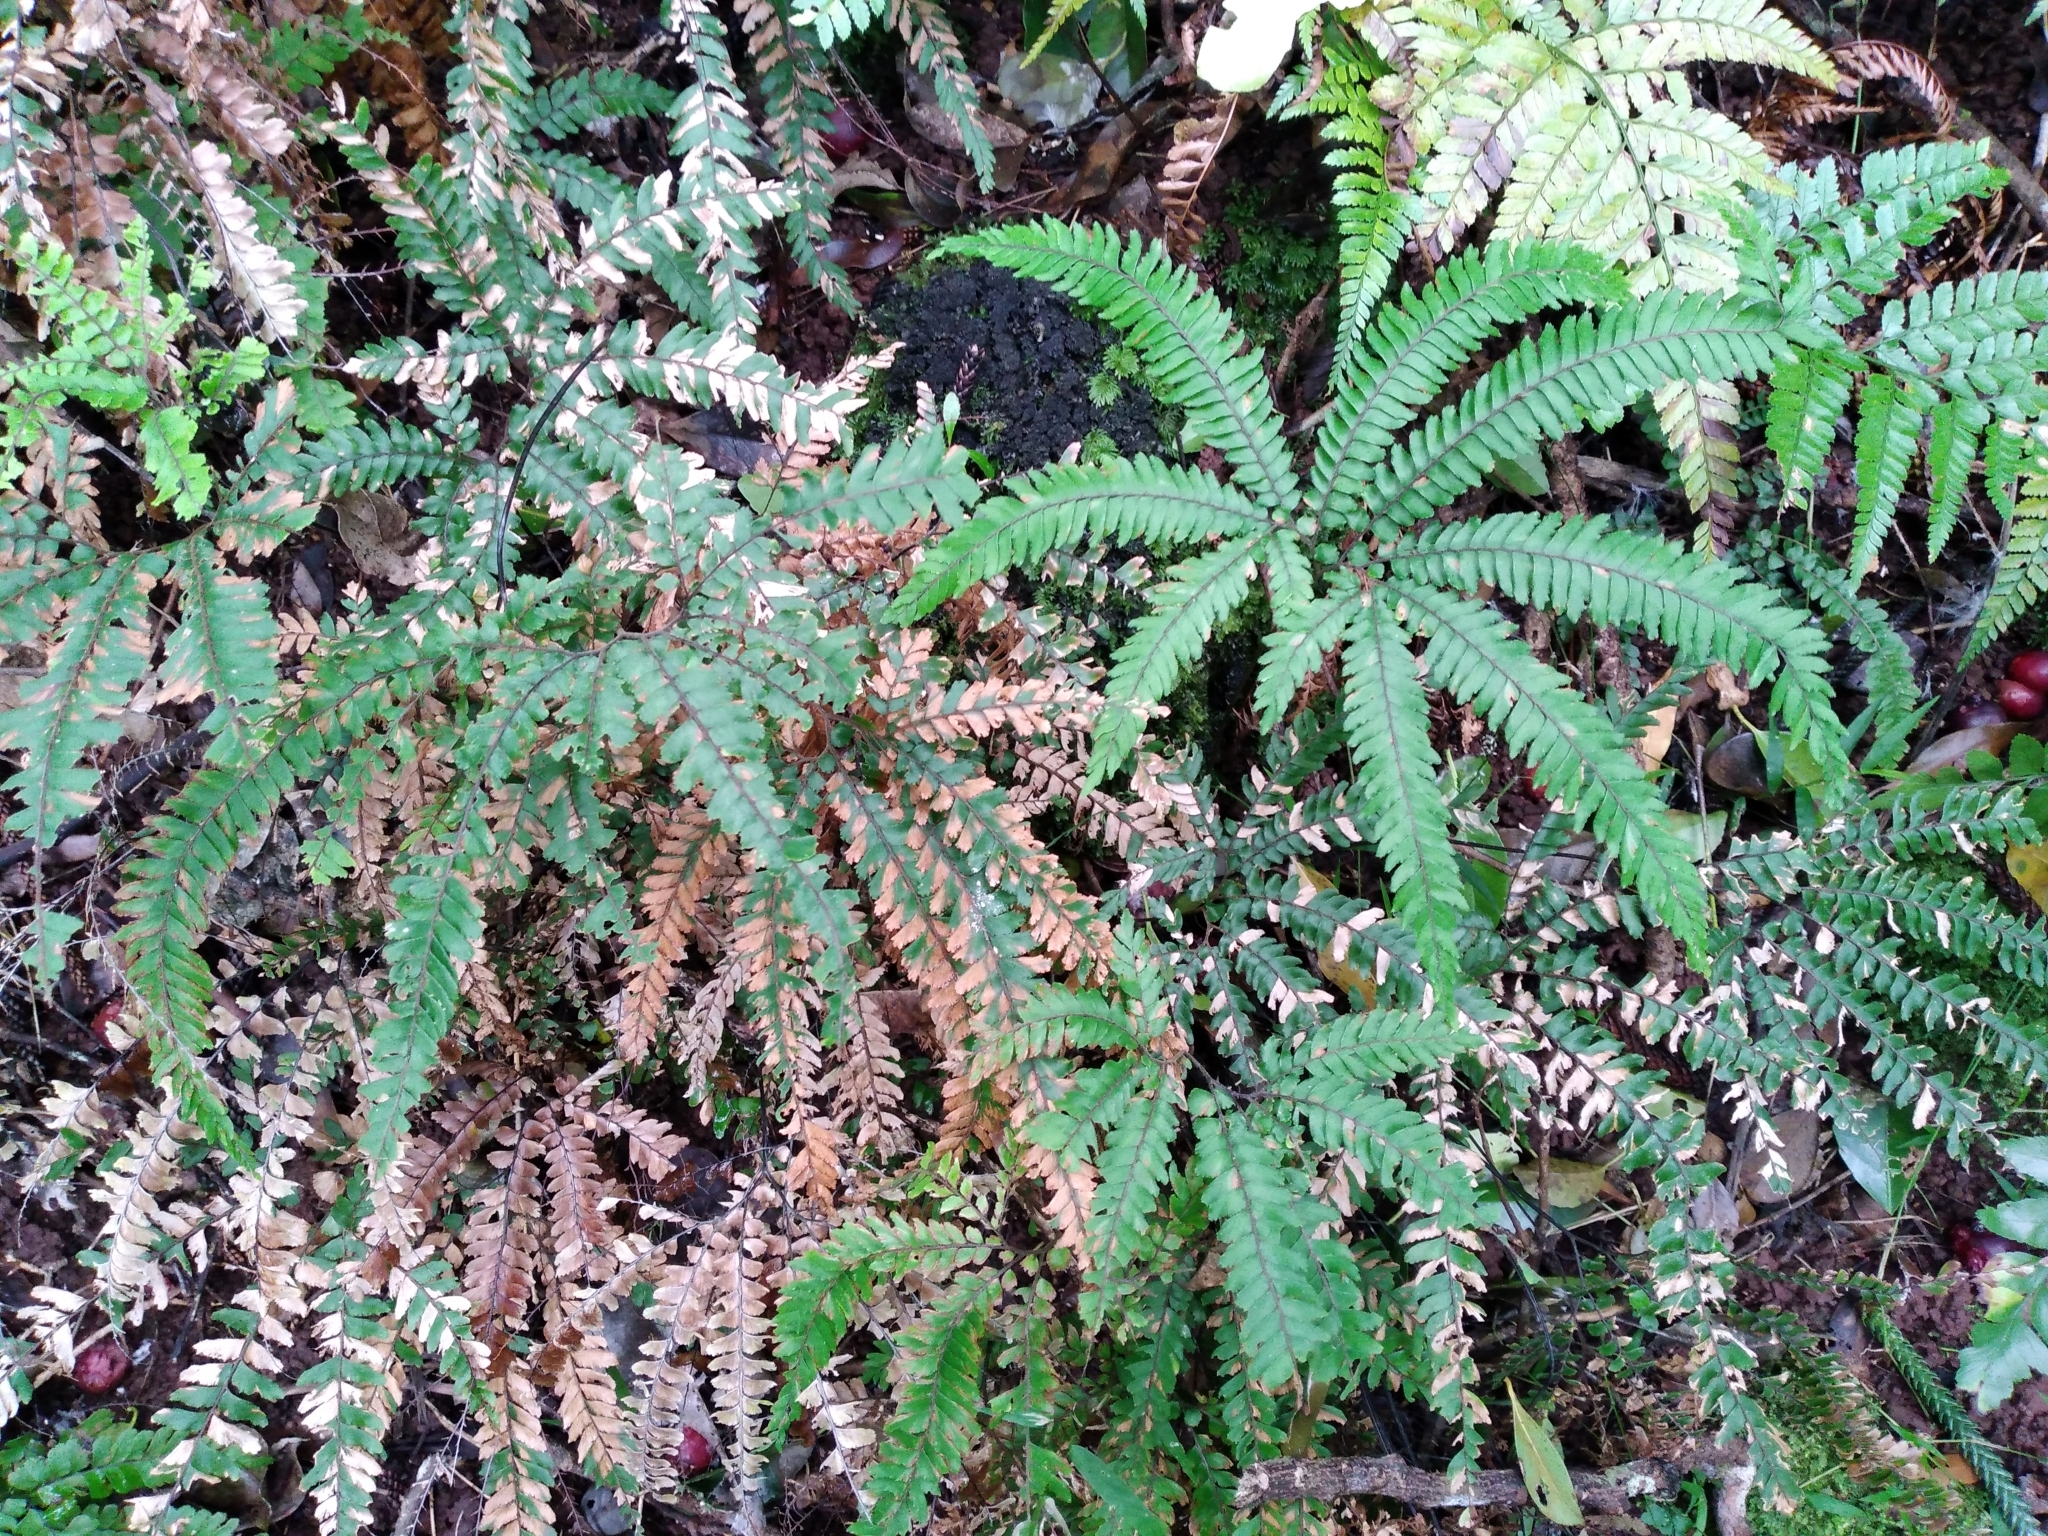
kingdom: Plantae
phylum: Tracheophyta
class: Polypodiopsida
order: Polypodiales
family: Pteridaceae
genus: Adiantum
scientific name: Adiantum hispidulum
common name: Rough maidenhair
